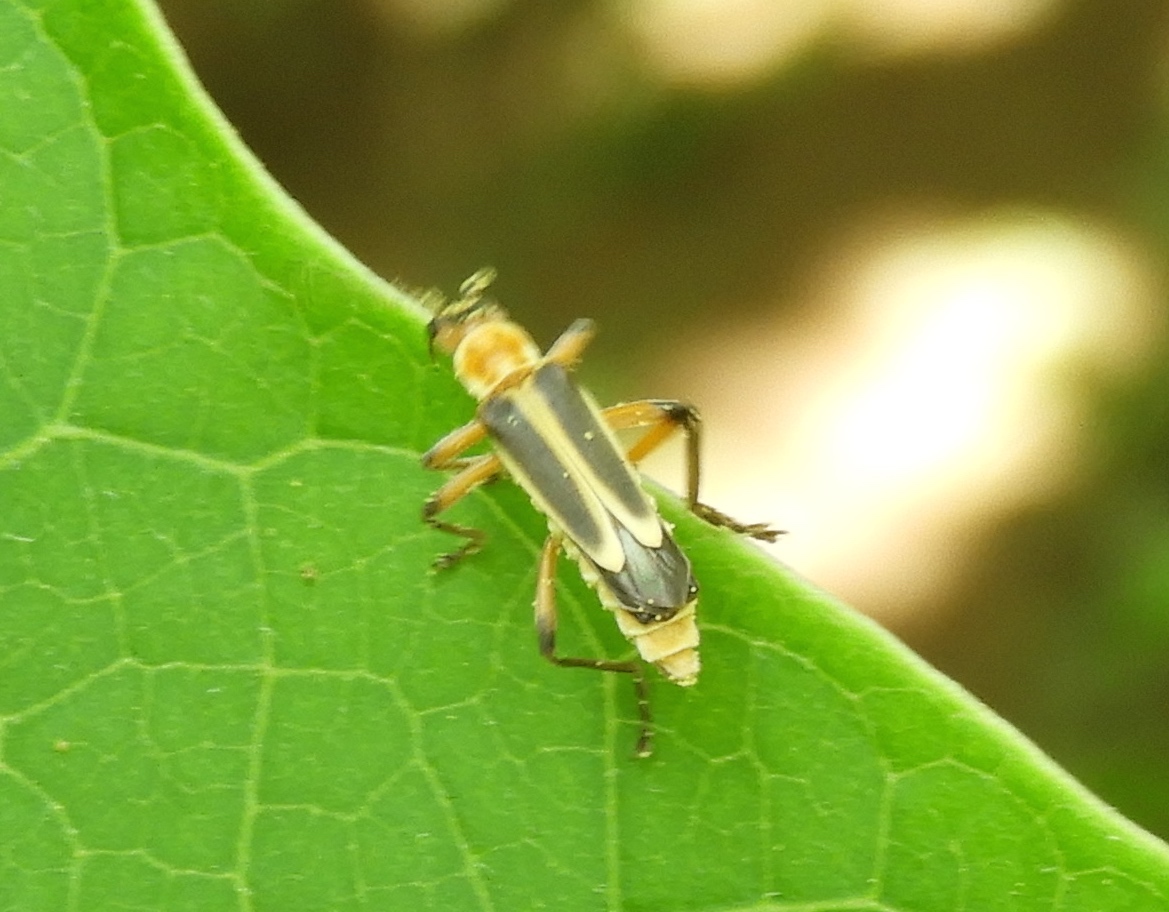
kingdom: Animalia
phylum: Arthropoda
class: Insecta
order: Coleoptera
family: Cantharidae
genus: Chauliognathus
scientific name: Chauliognathus
